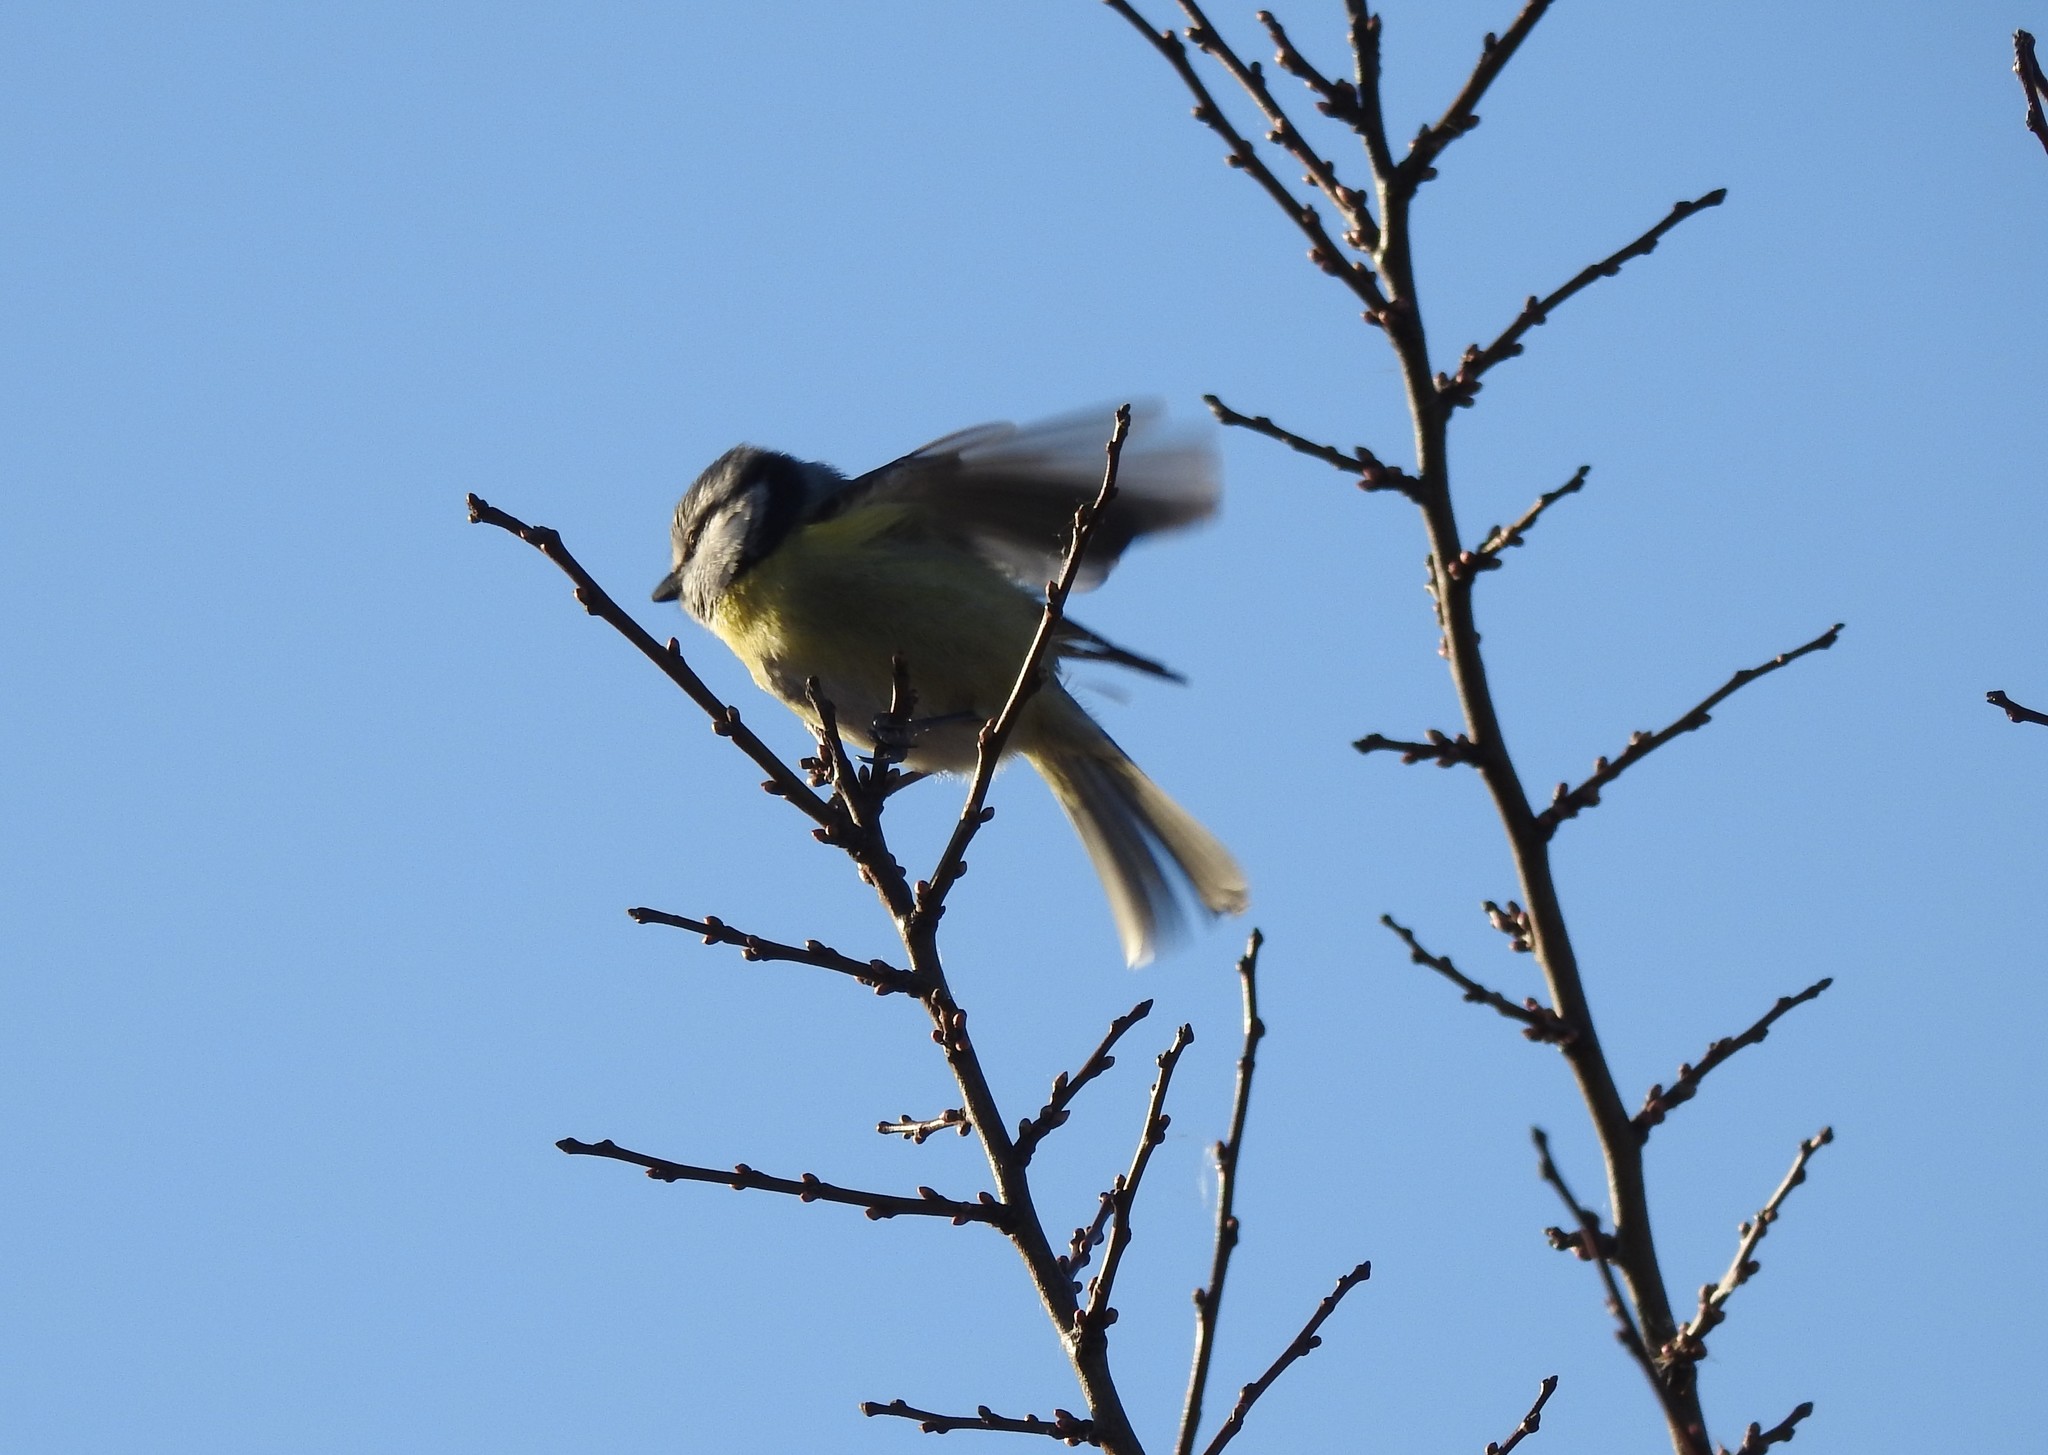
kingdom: Animalia
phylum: Chordata
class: Aves
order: Passeriformes
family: Paridae
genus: Cyanistes
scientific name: Cyanistes caeruleus
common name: Eurasian blue tit
